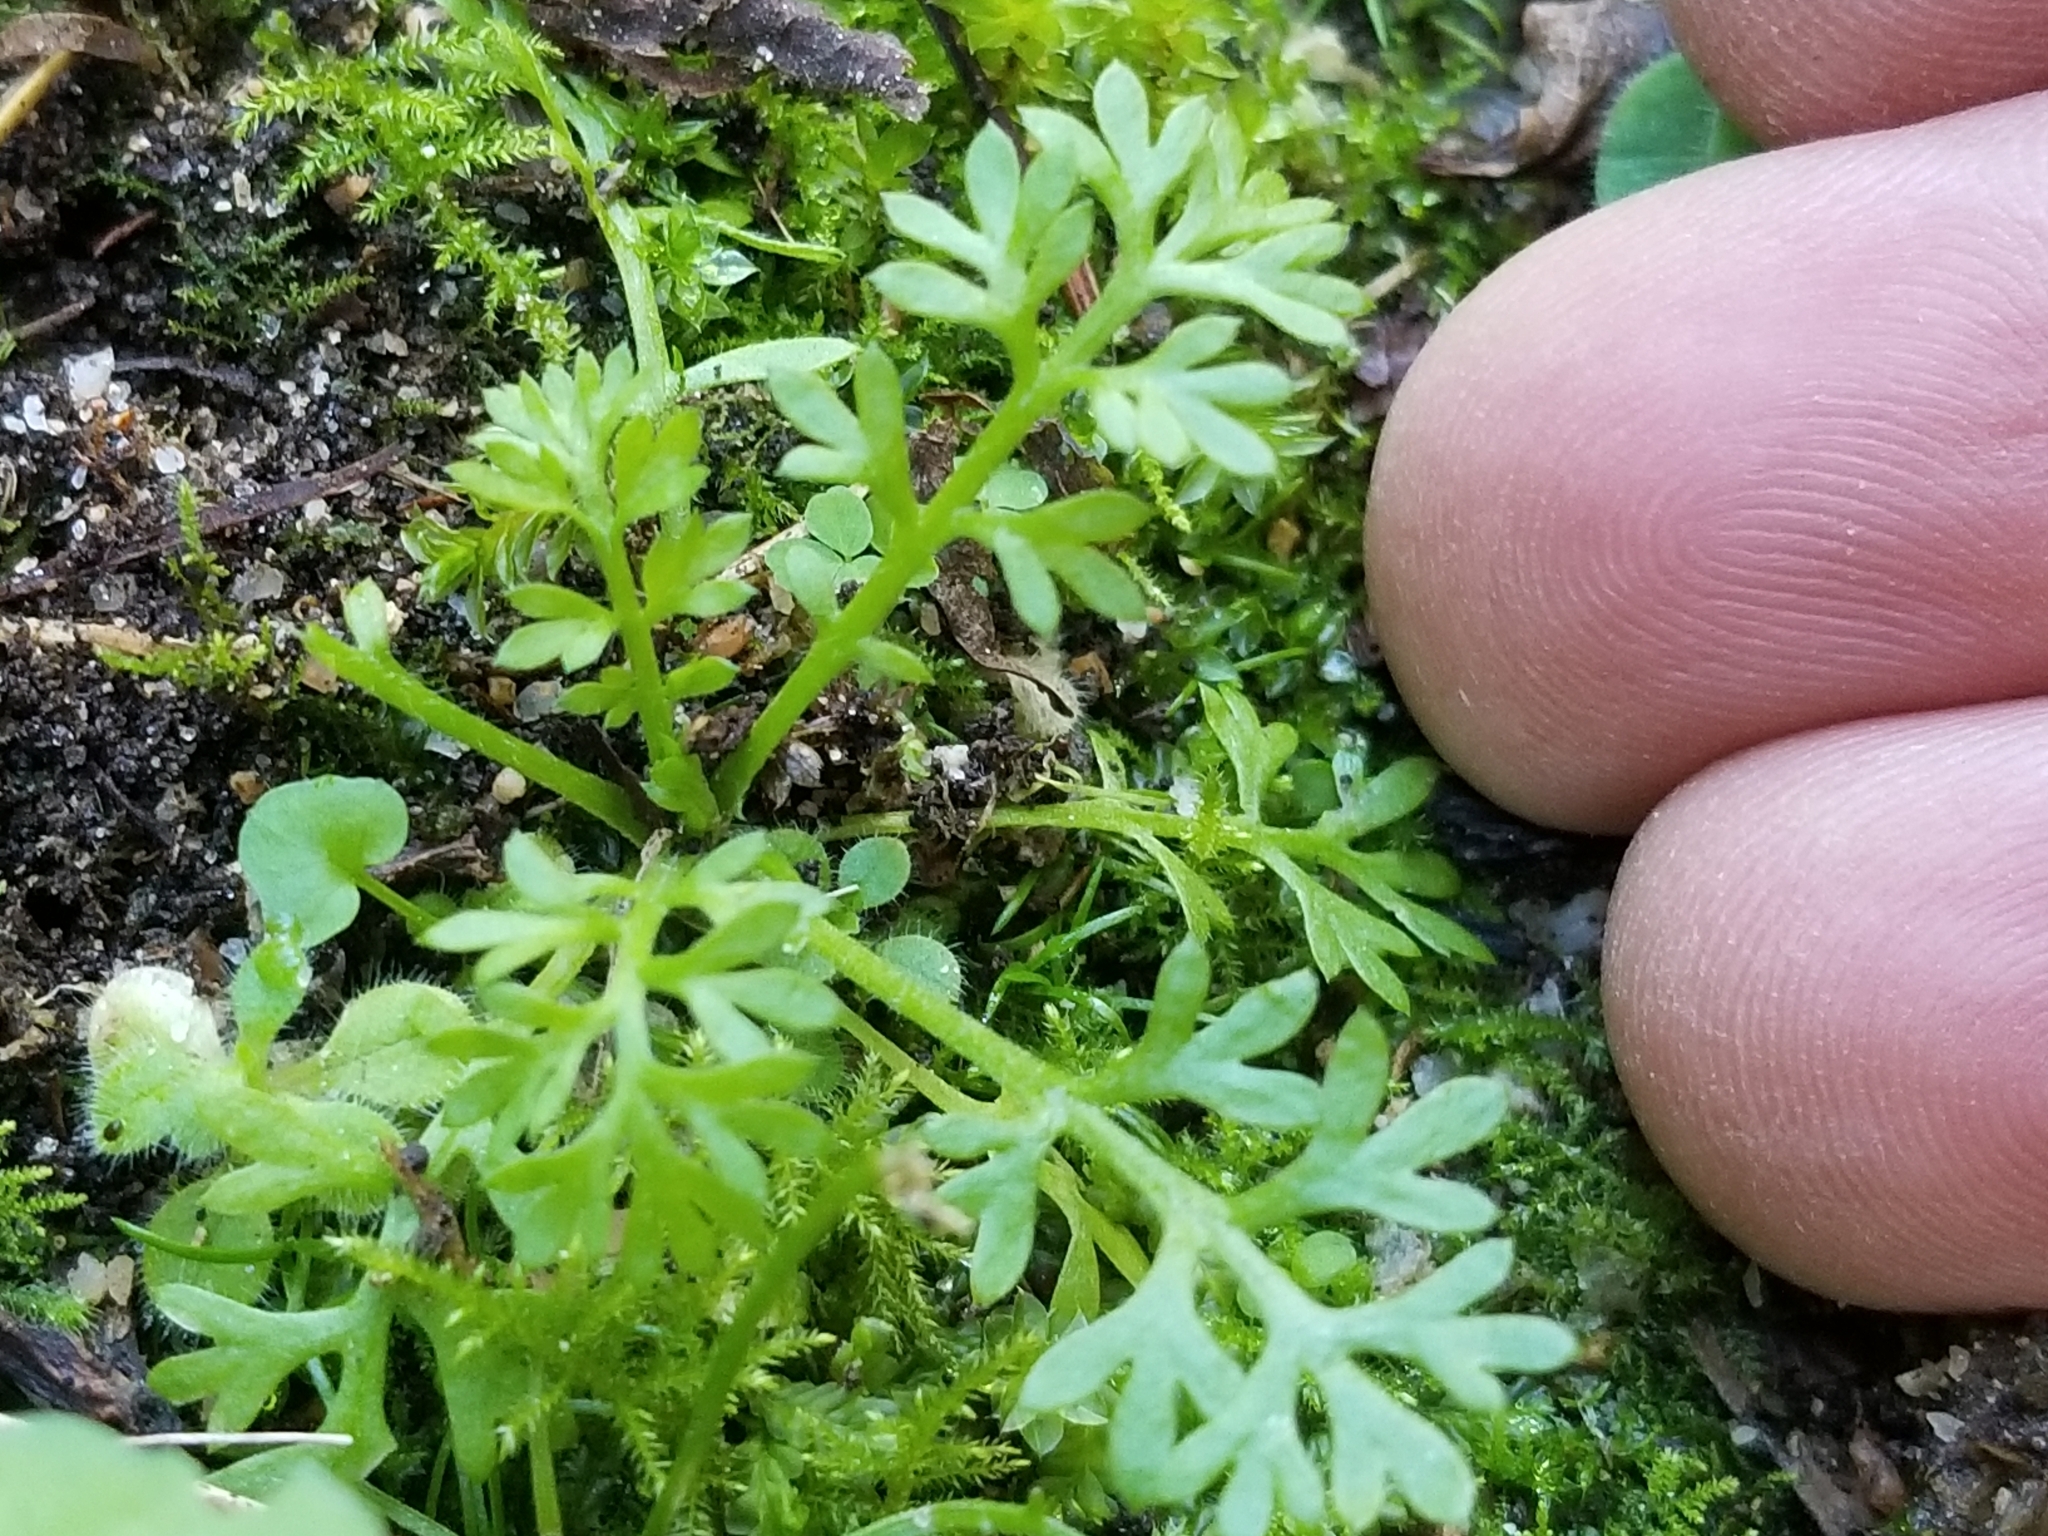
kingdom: Plantae
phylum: Tracheophyta
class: Magnoliopsida
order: Asterales
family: Asteraceae
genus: Cotula
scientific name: Cotula australis
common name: Australian waterbuttons
